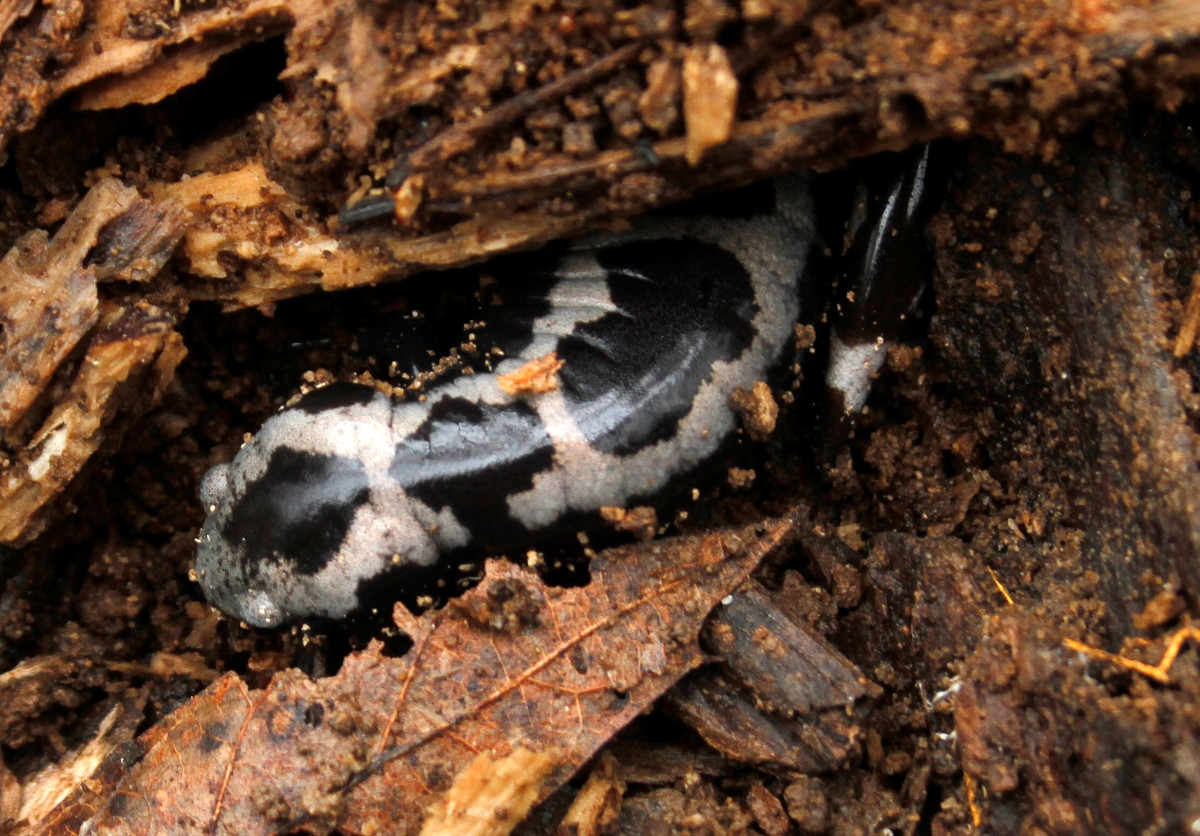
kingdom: Animalia
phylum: Chordata
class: Amphibia
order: Caudata
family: Ambystomatidae
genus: Ambystoma
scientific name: Ambystoma opacum
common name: Marbled salamander
